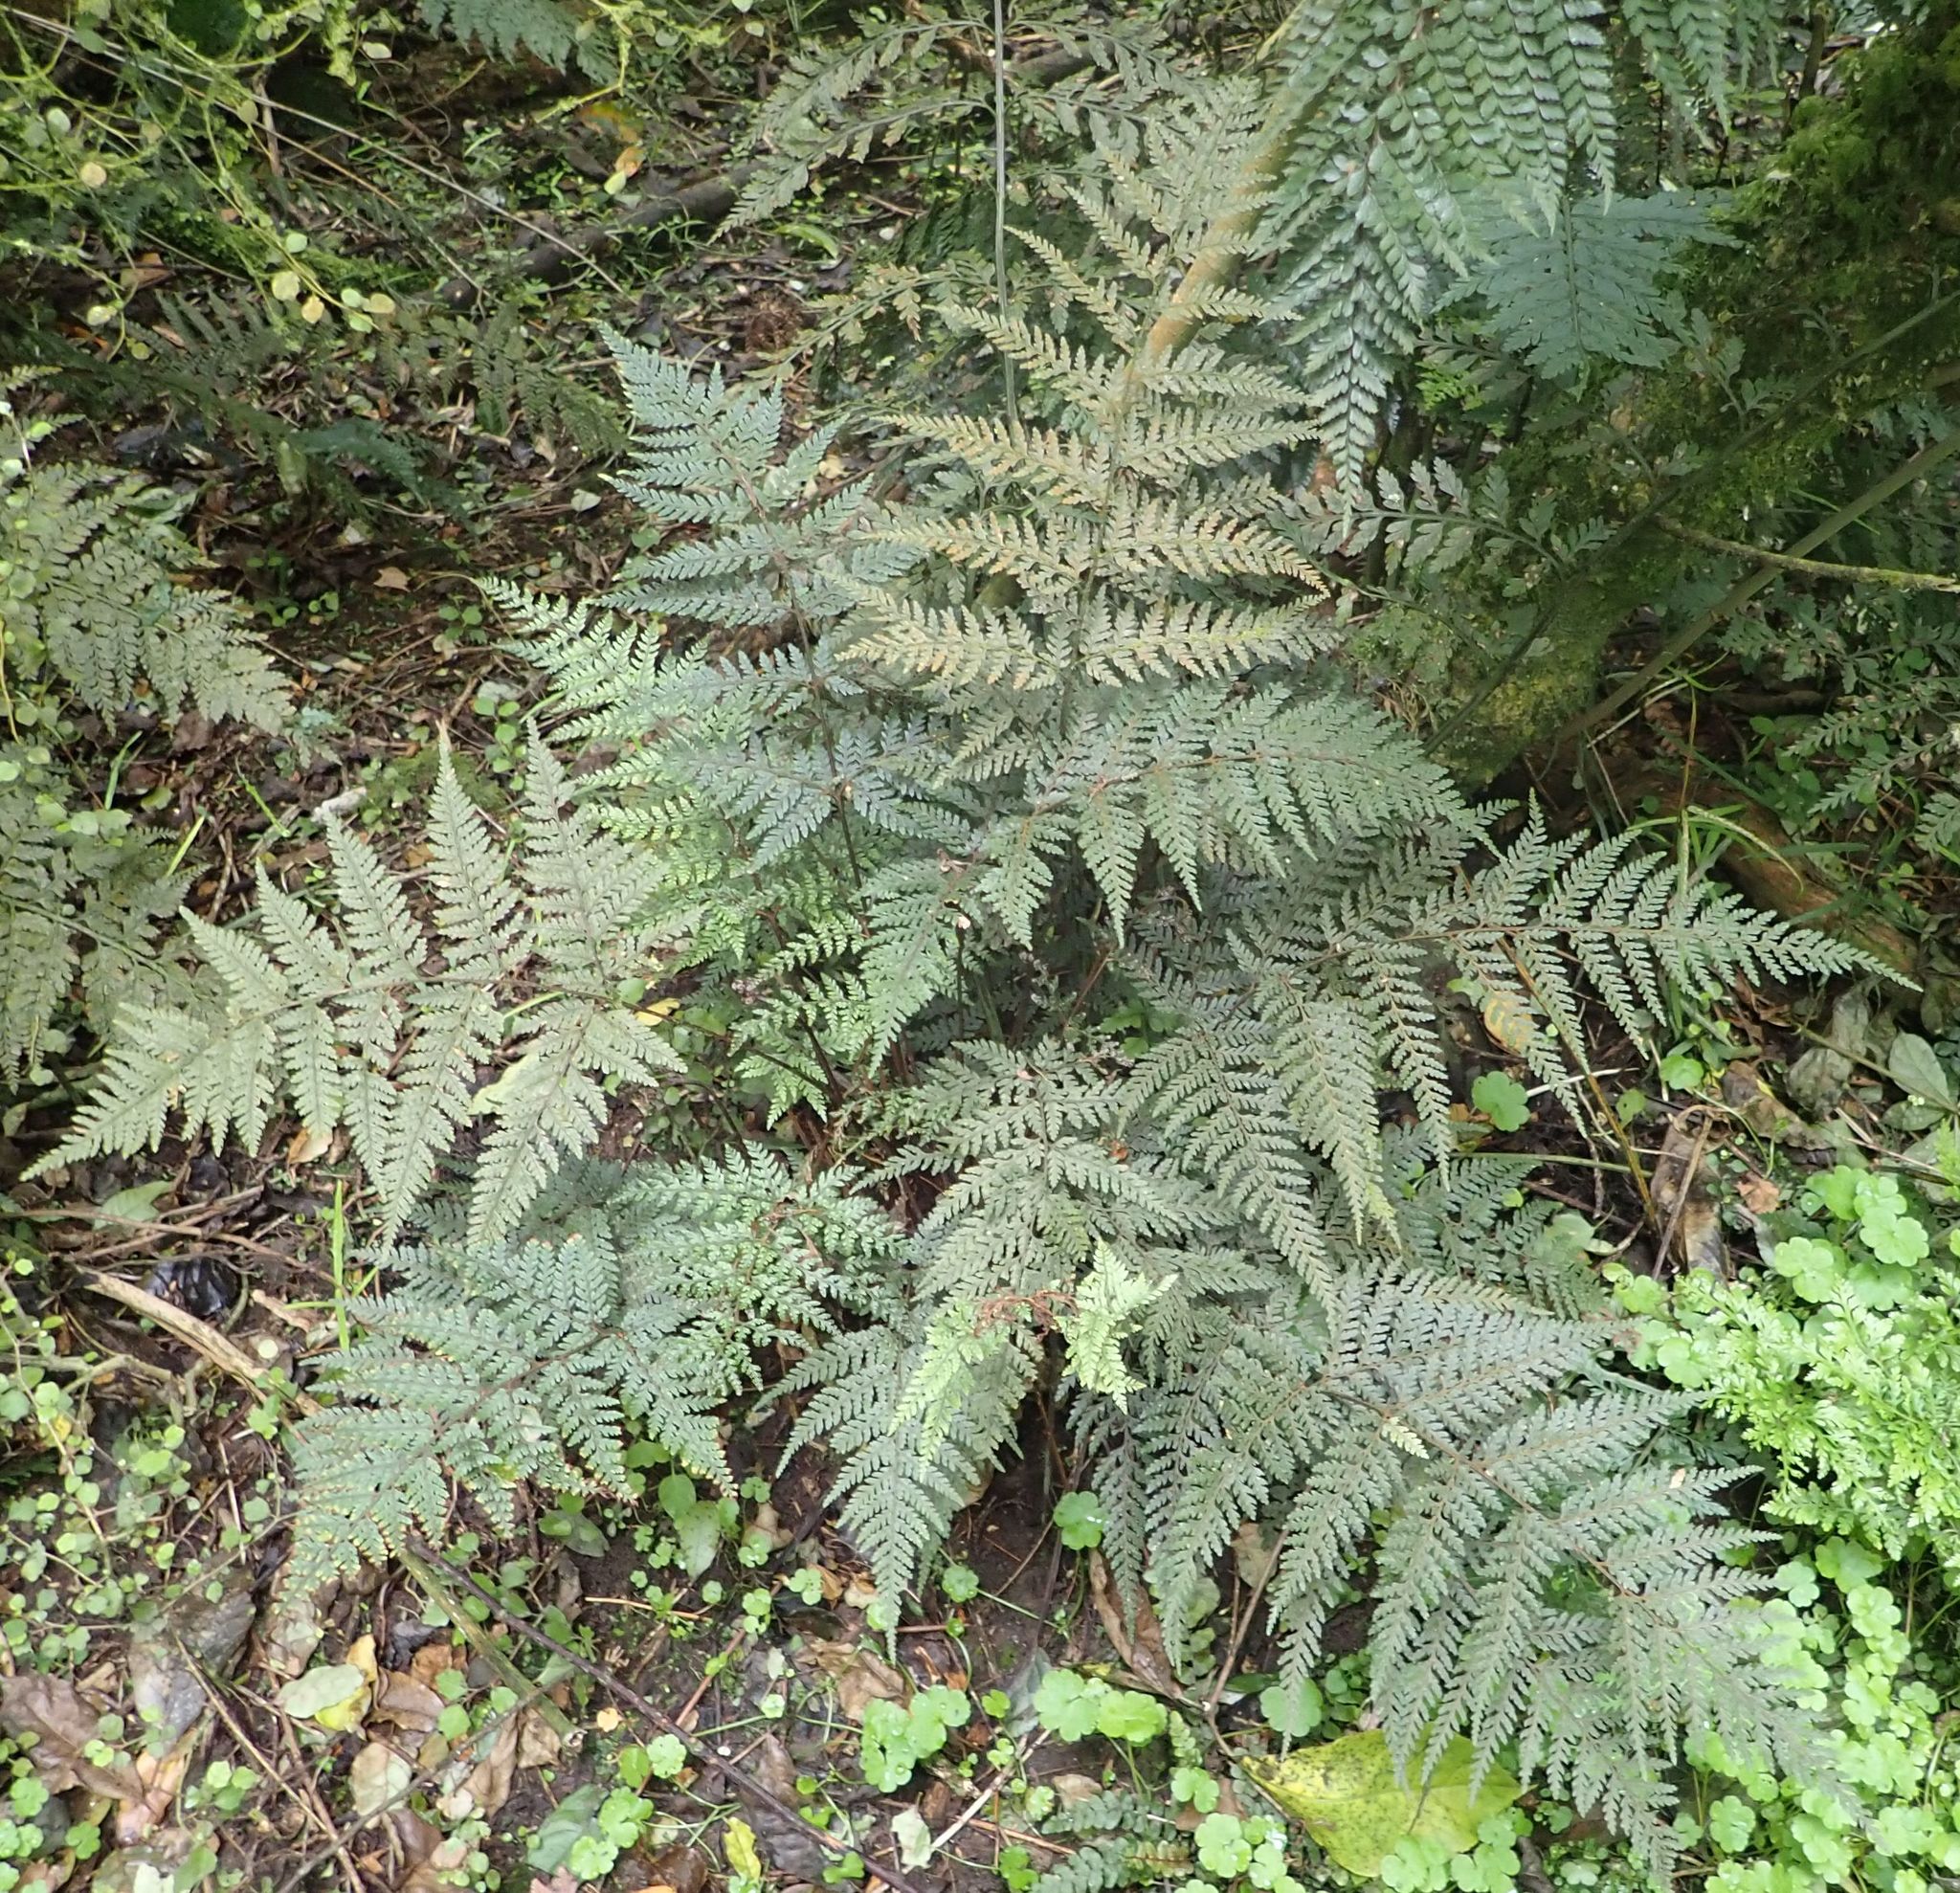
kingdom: Plantae
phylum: Tracheophyta
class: Polypodiopsida
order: Polypodiales
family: Dryopteridaceae
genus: Parapolystichum
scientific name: Parapolystichum glabellum
